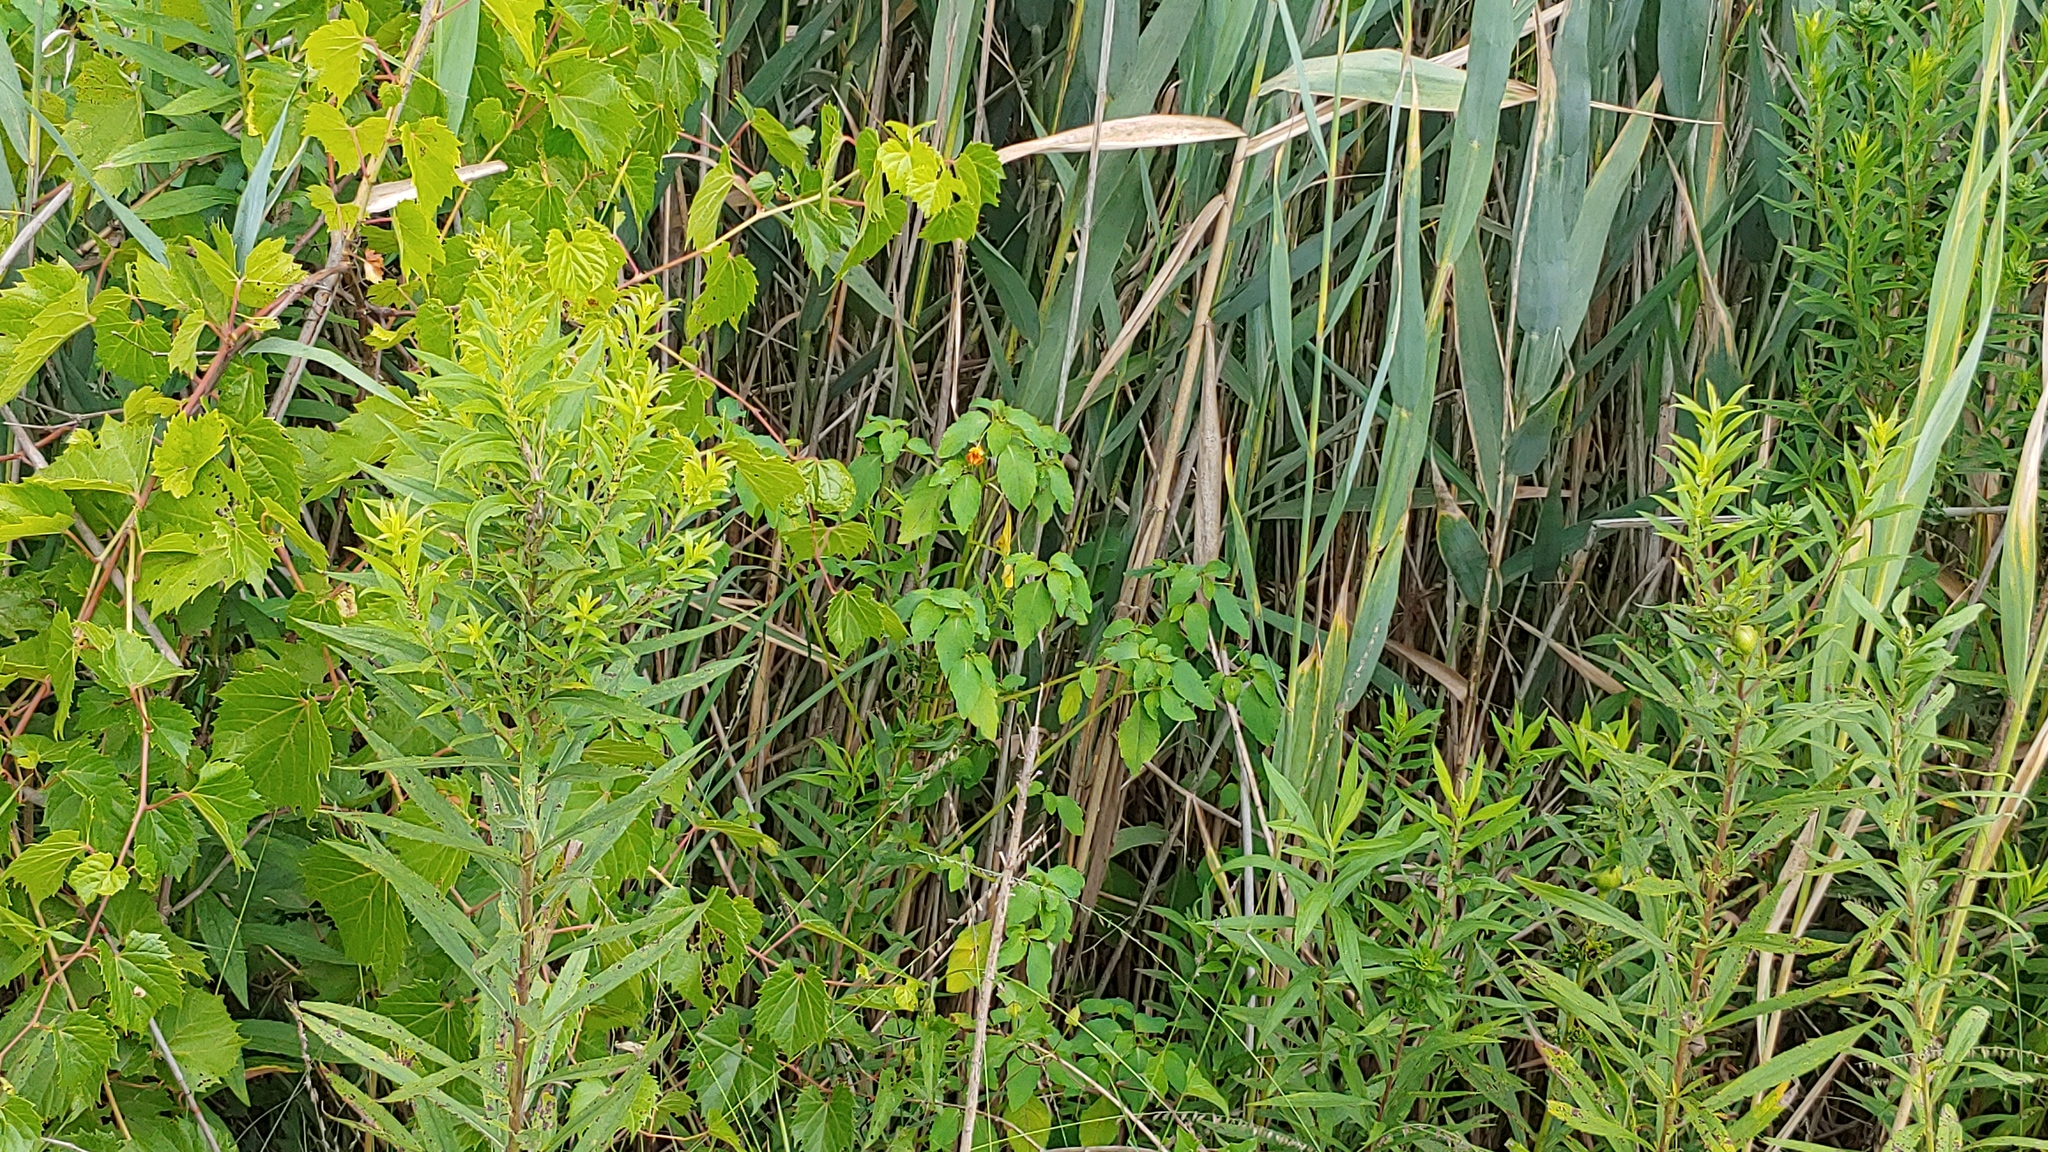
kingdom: Plantae
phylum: Tracheophyta
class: Magnoliopsida
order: Ericales
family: Balsaminaceae
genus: Impatiens
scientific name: Impatiens capensis
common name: Orange balsam
